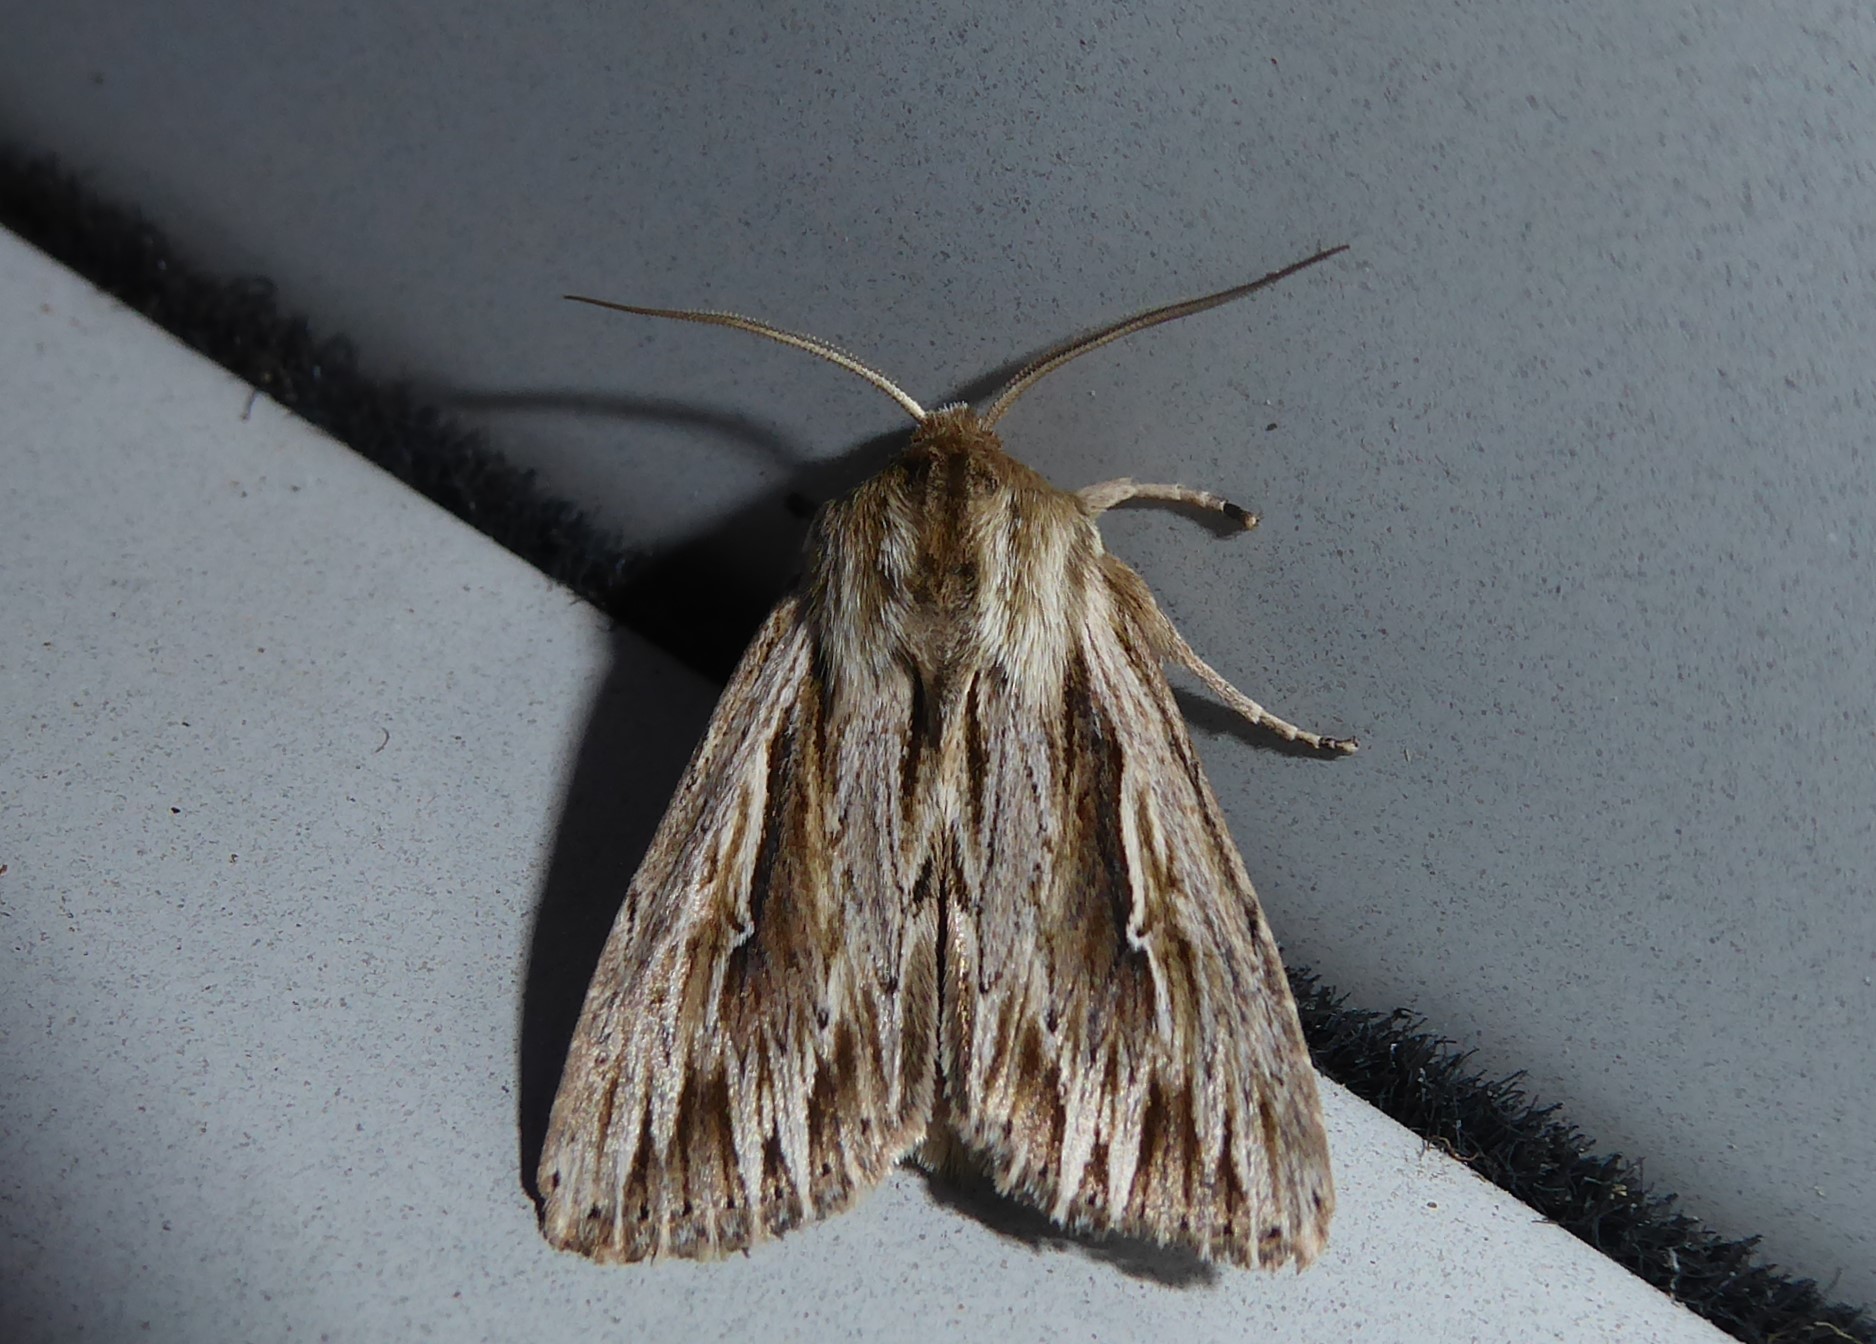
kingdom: Animalia
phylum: Arthropoda
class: Insecta
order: Lepidoptera
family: Noctuidae
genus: Persectania
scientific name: Persectania aversa
